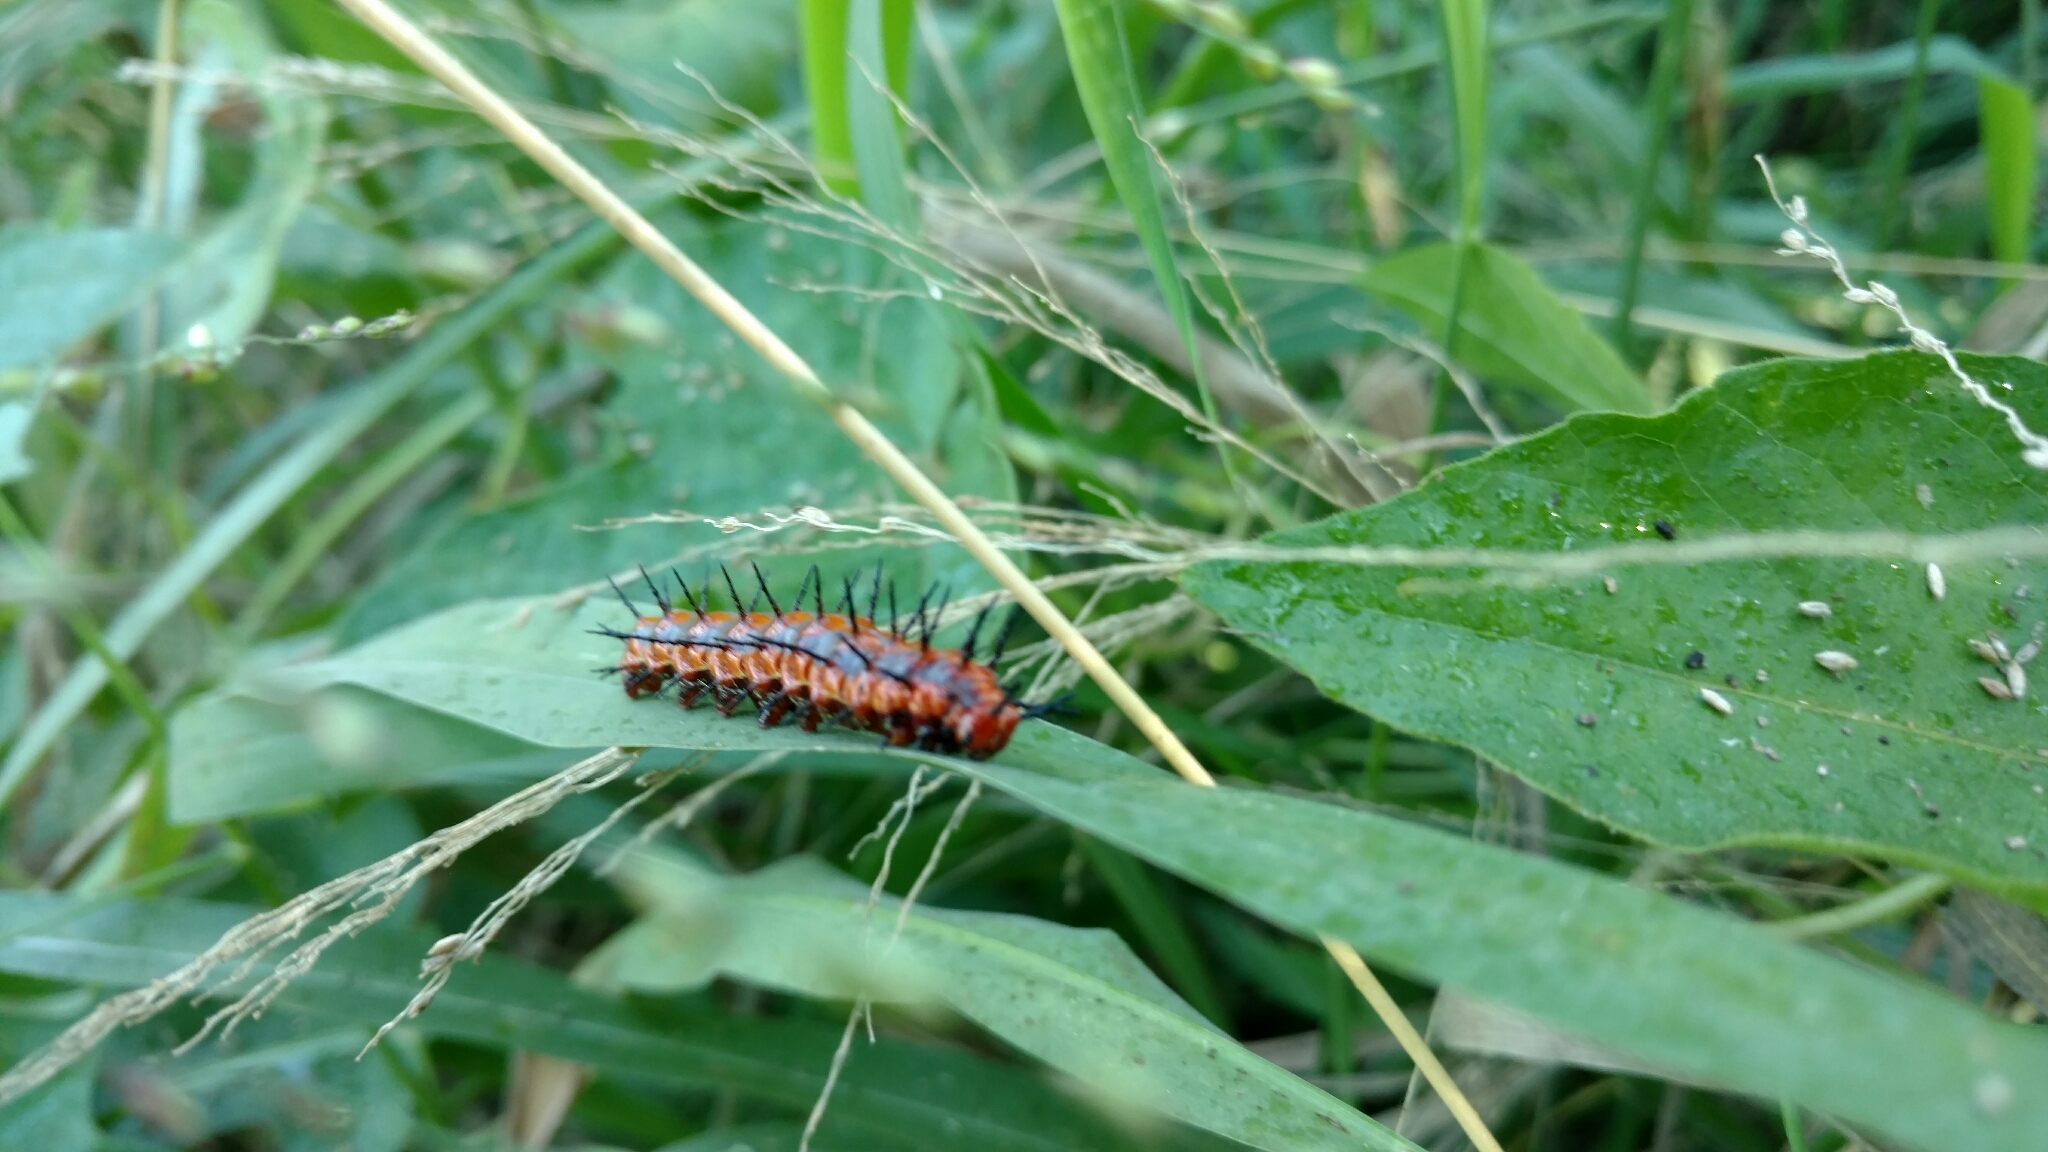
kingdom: Animalia
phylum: Arthropoda
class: Insecta
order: Lepidoptera
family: Nymphalidae
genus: Dione
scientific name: Dione vanillae
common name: Gulf fritillary
